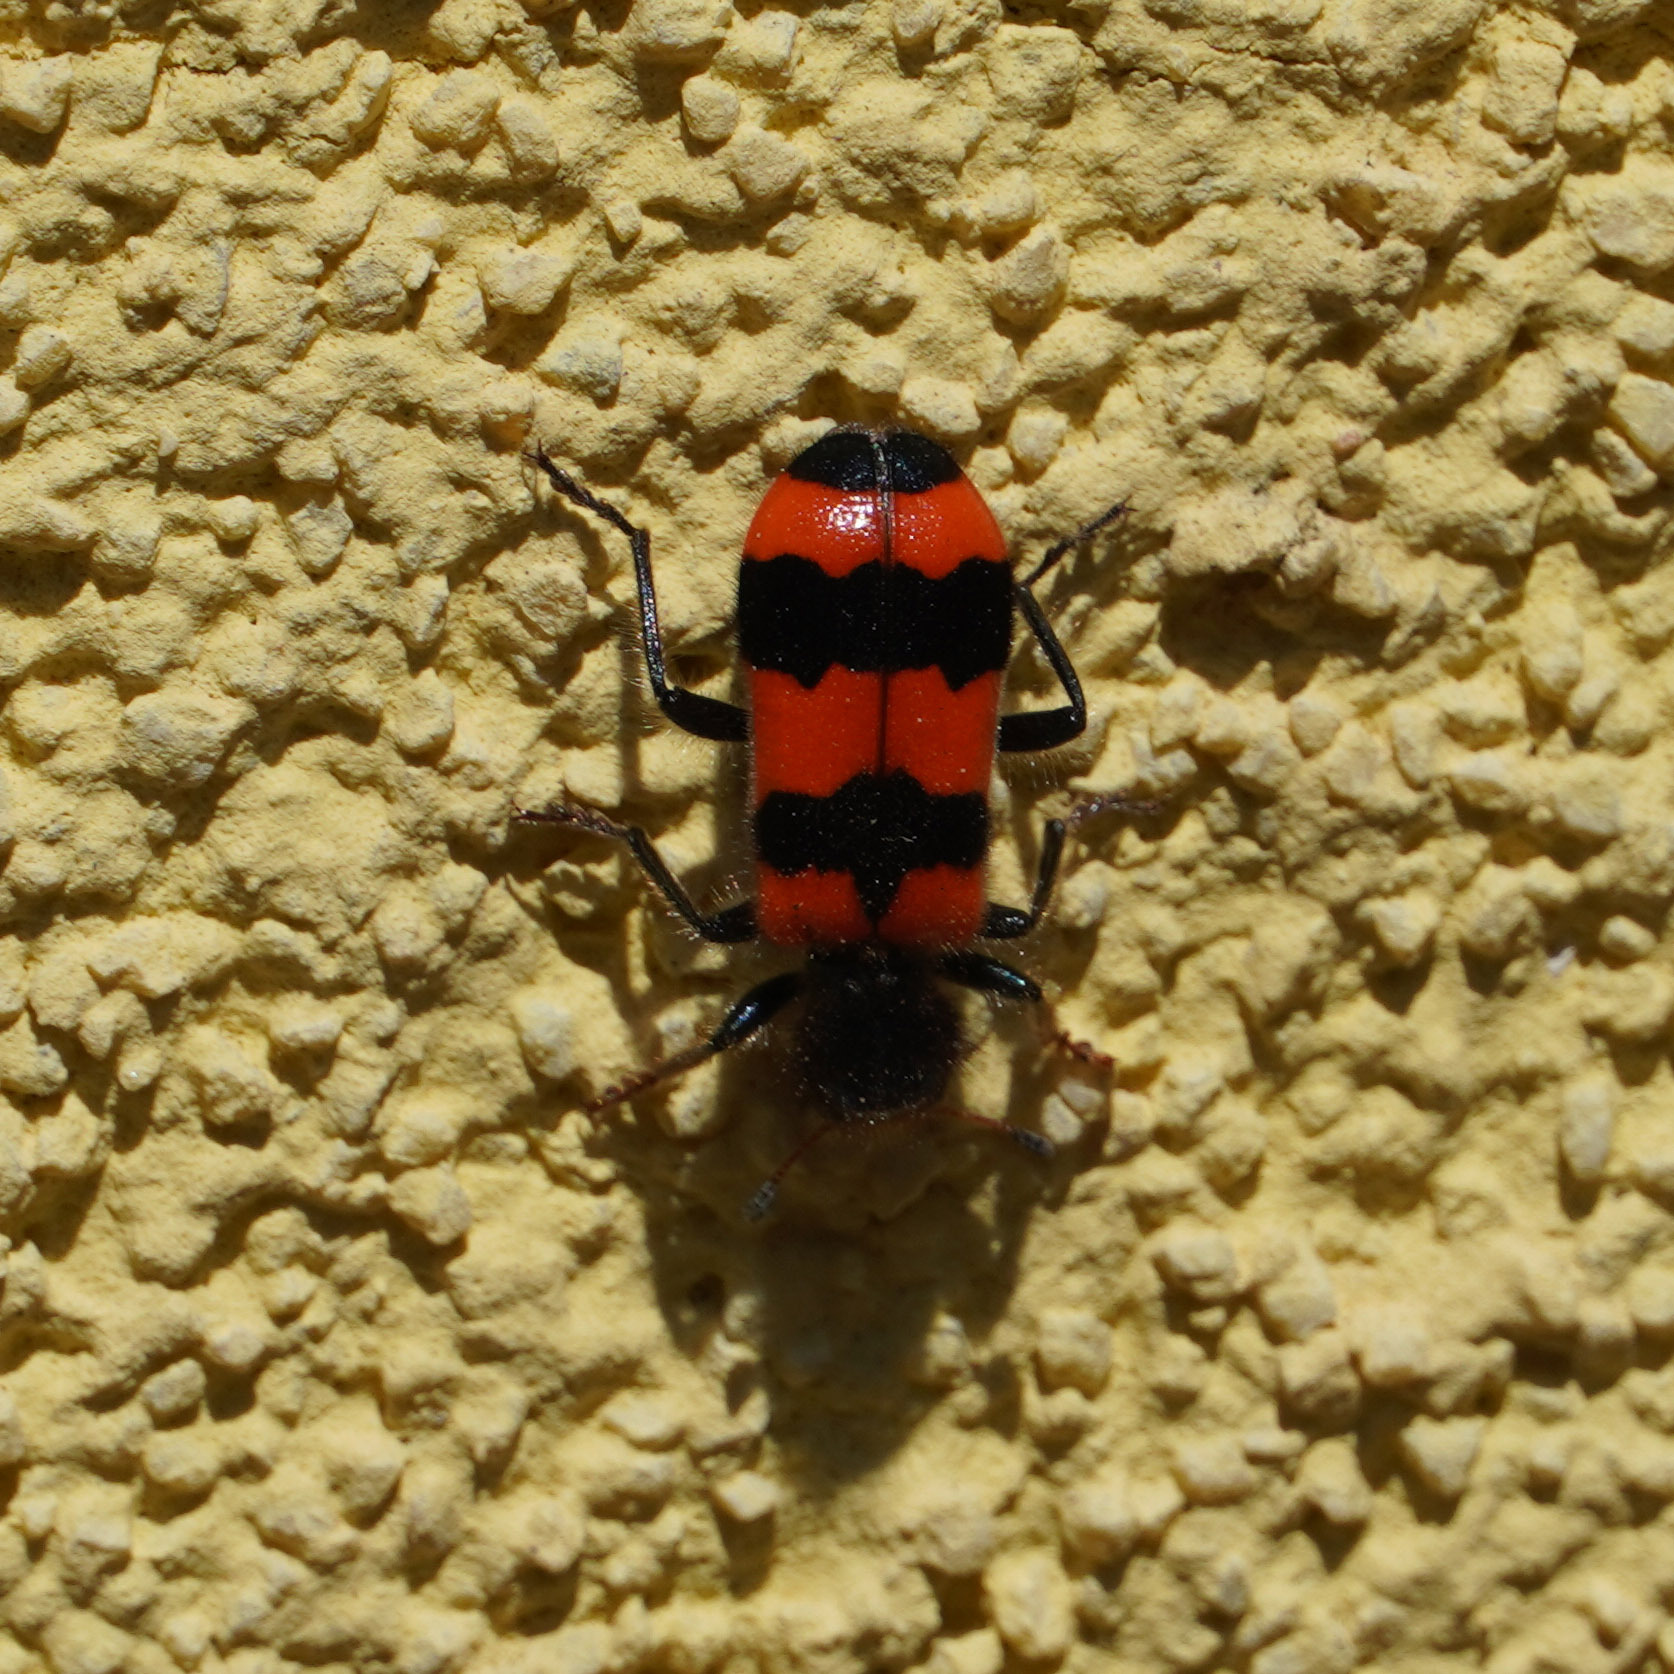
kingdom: Animalia
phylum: Arthropoda
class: Insecta
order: Coleoptera
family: Cleridae
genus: Trichodes
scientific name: Trichodes apiarius
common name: Bee-eating beetle
